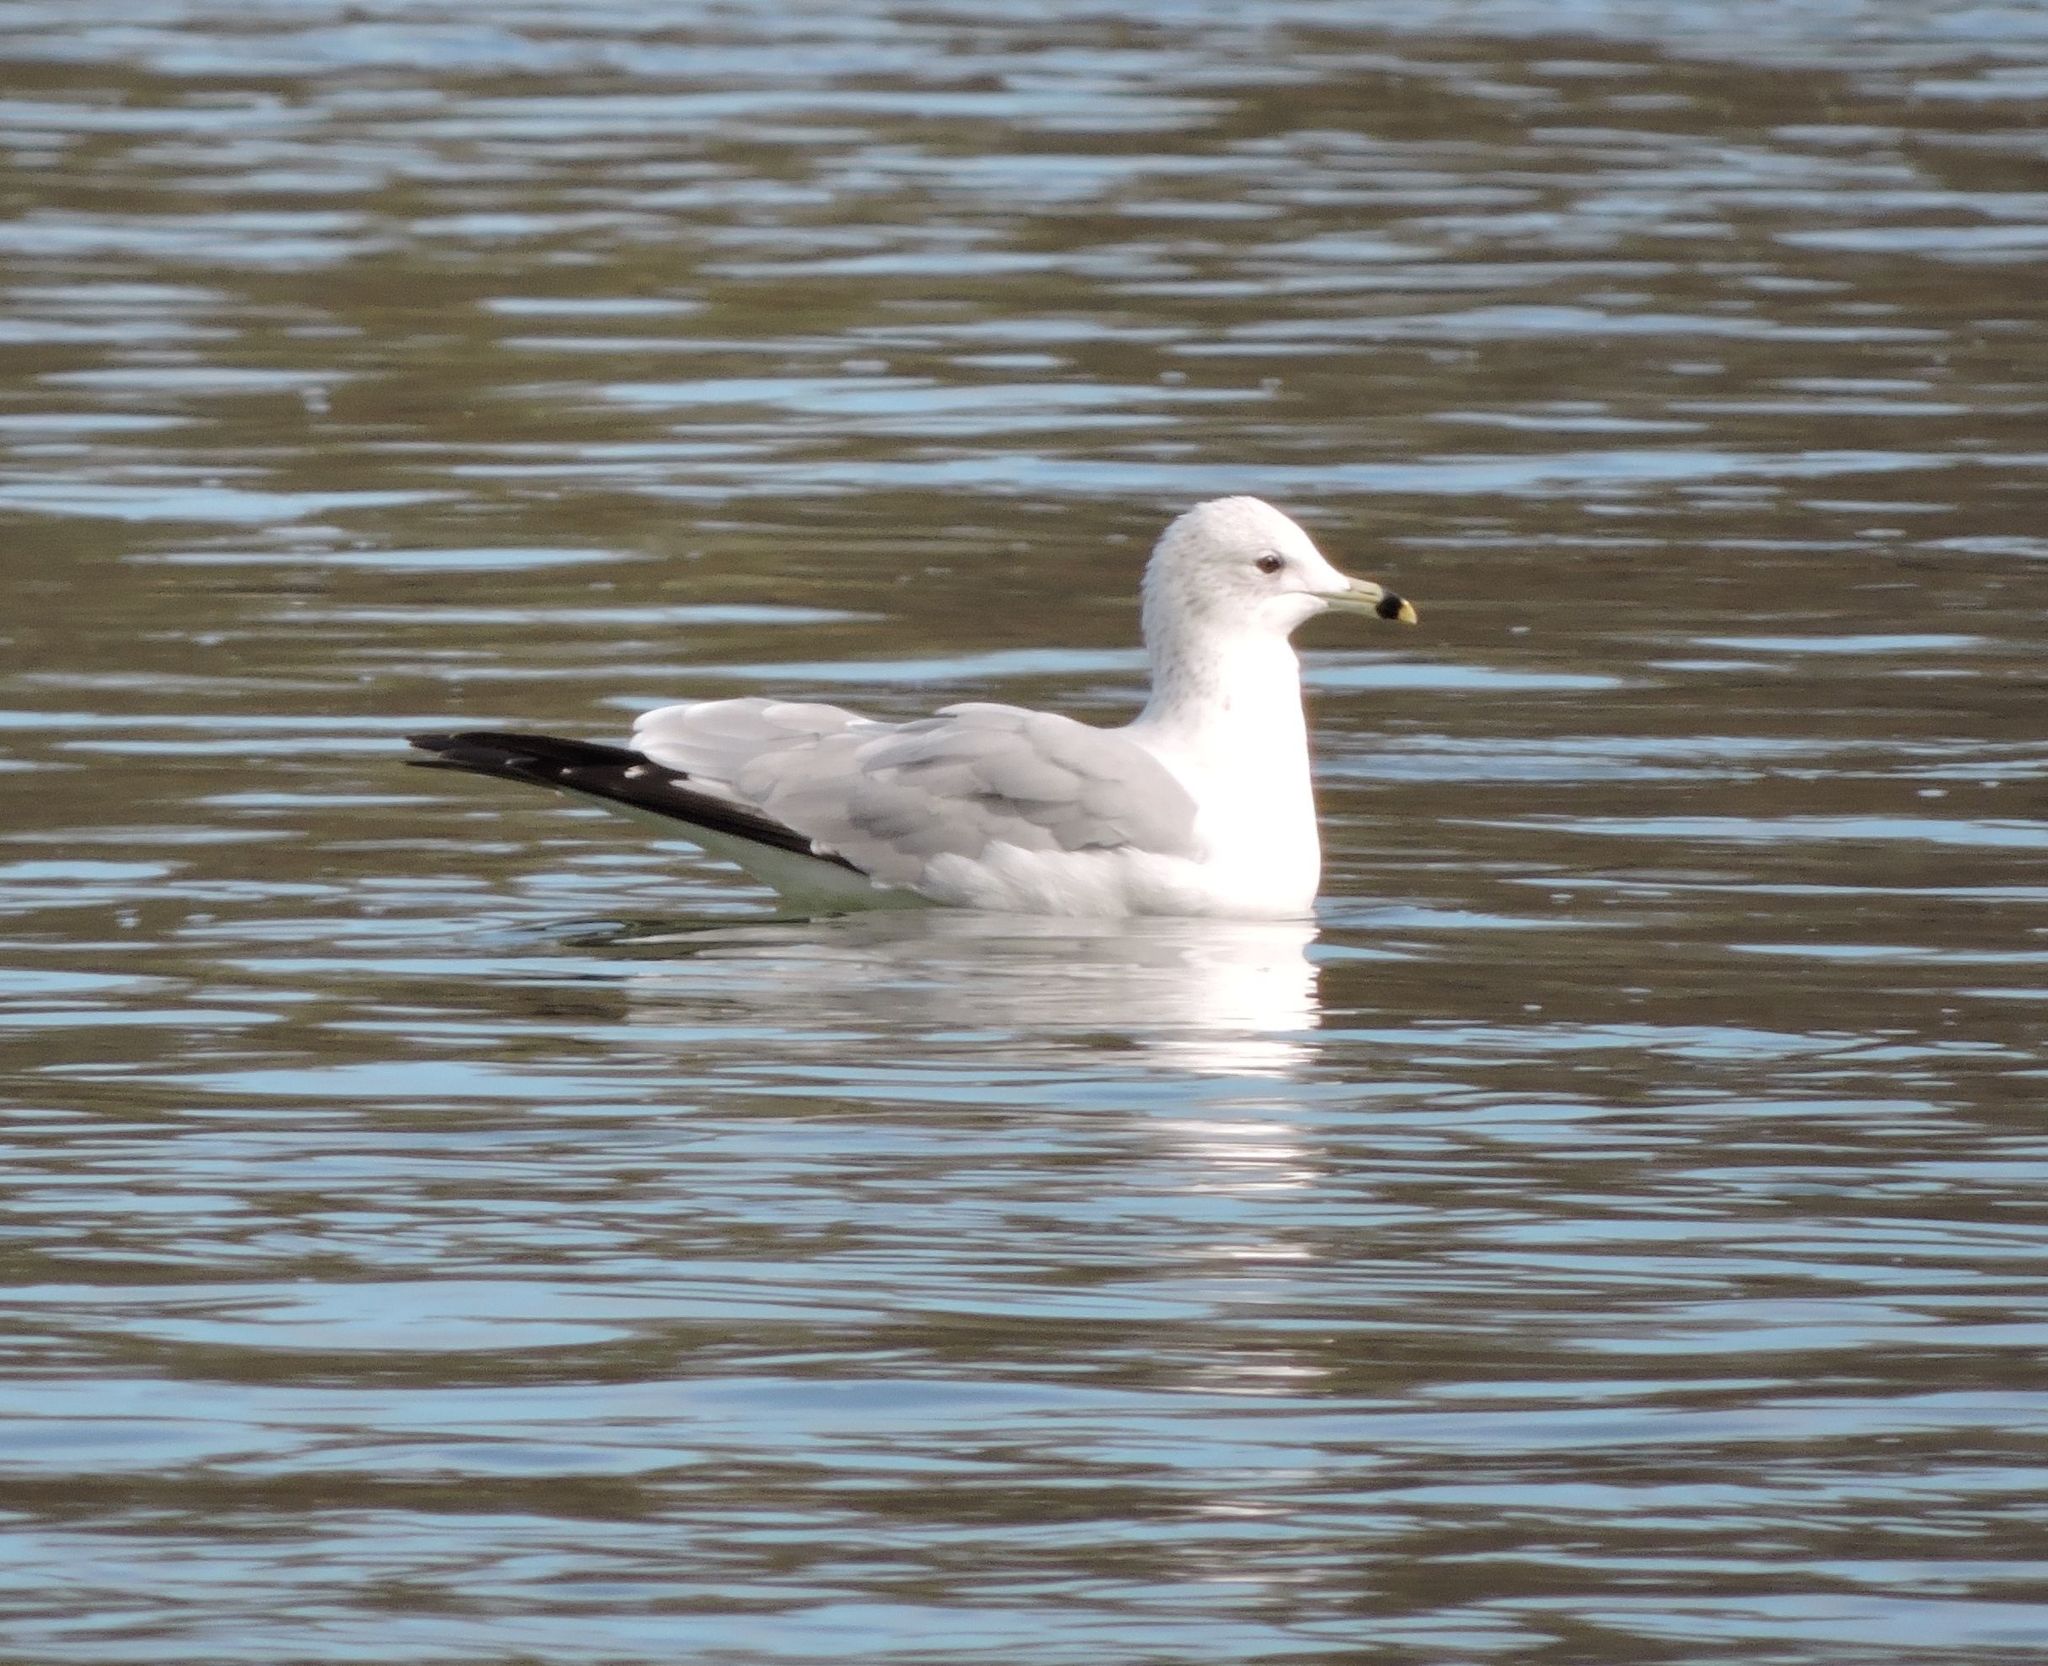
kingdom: Animalia
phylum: Chordata
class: Aves
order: Charadriiformes
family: Laridae
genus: Larus
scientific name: Larus delawarensis
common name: Ring-billed gull
